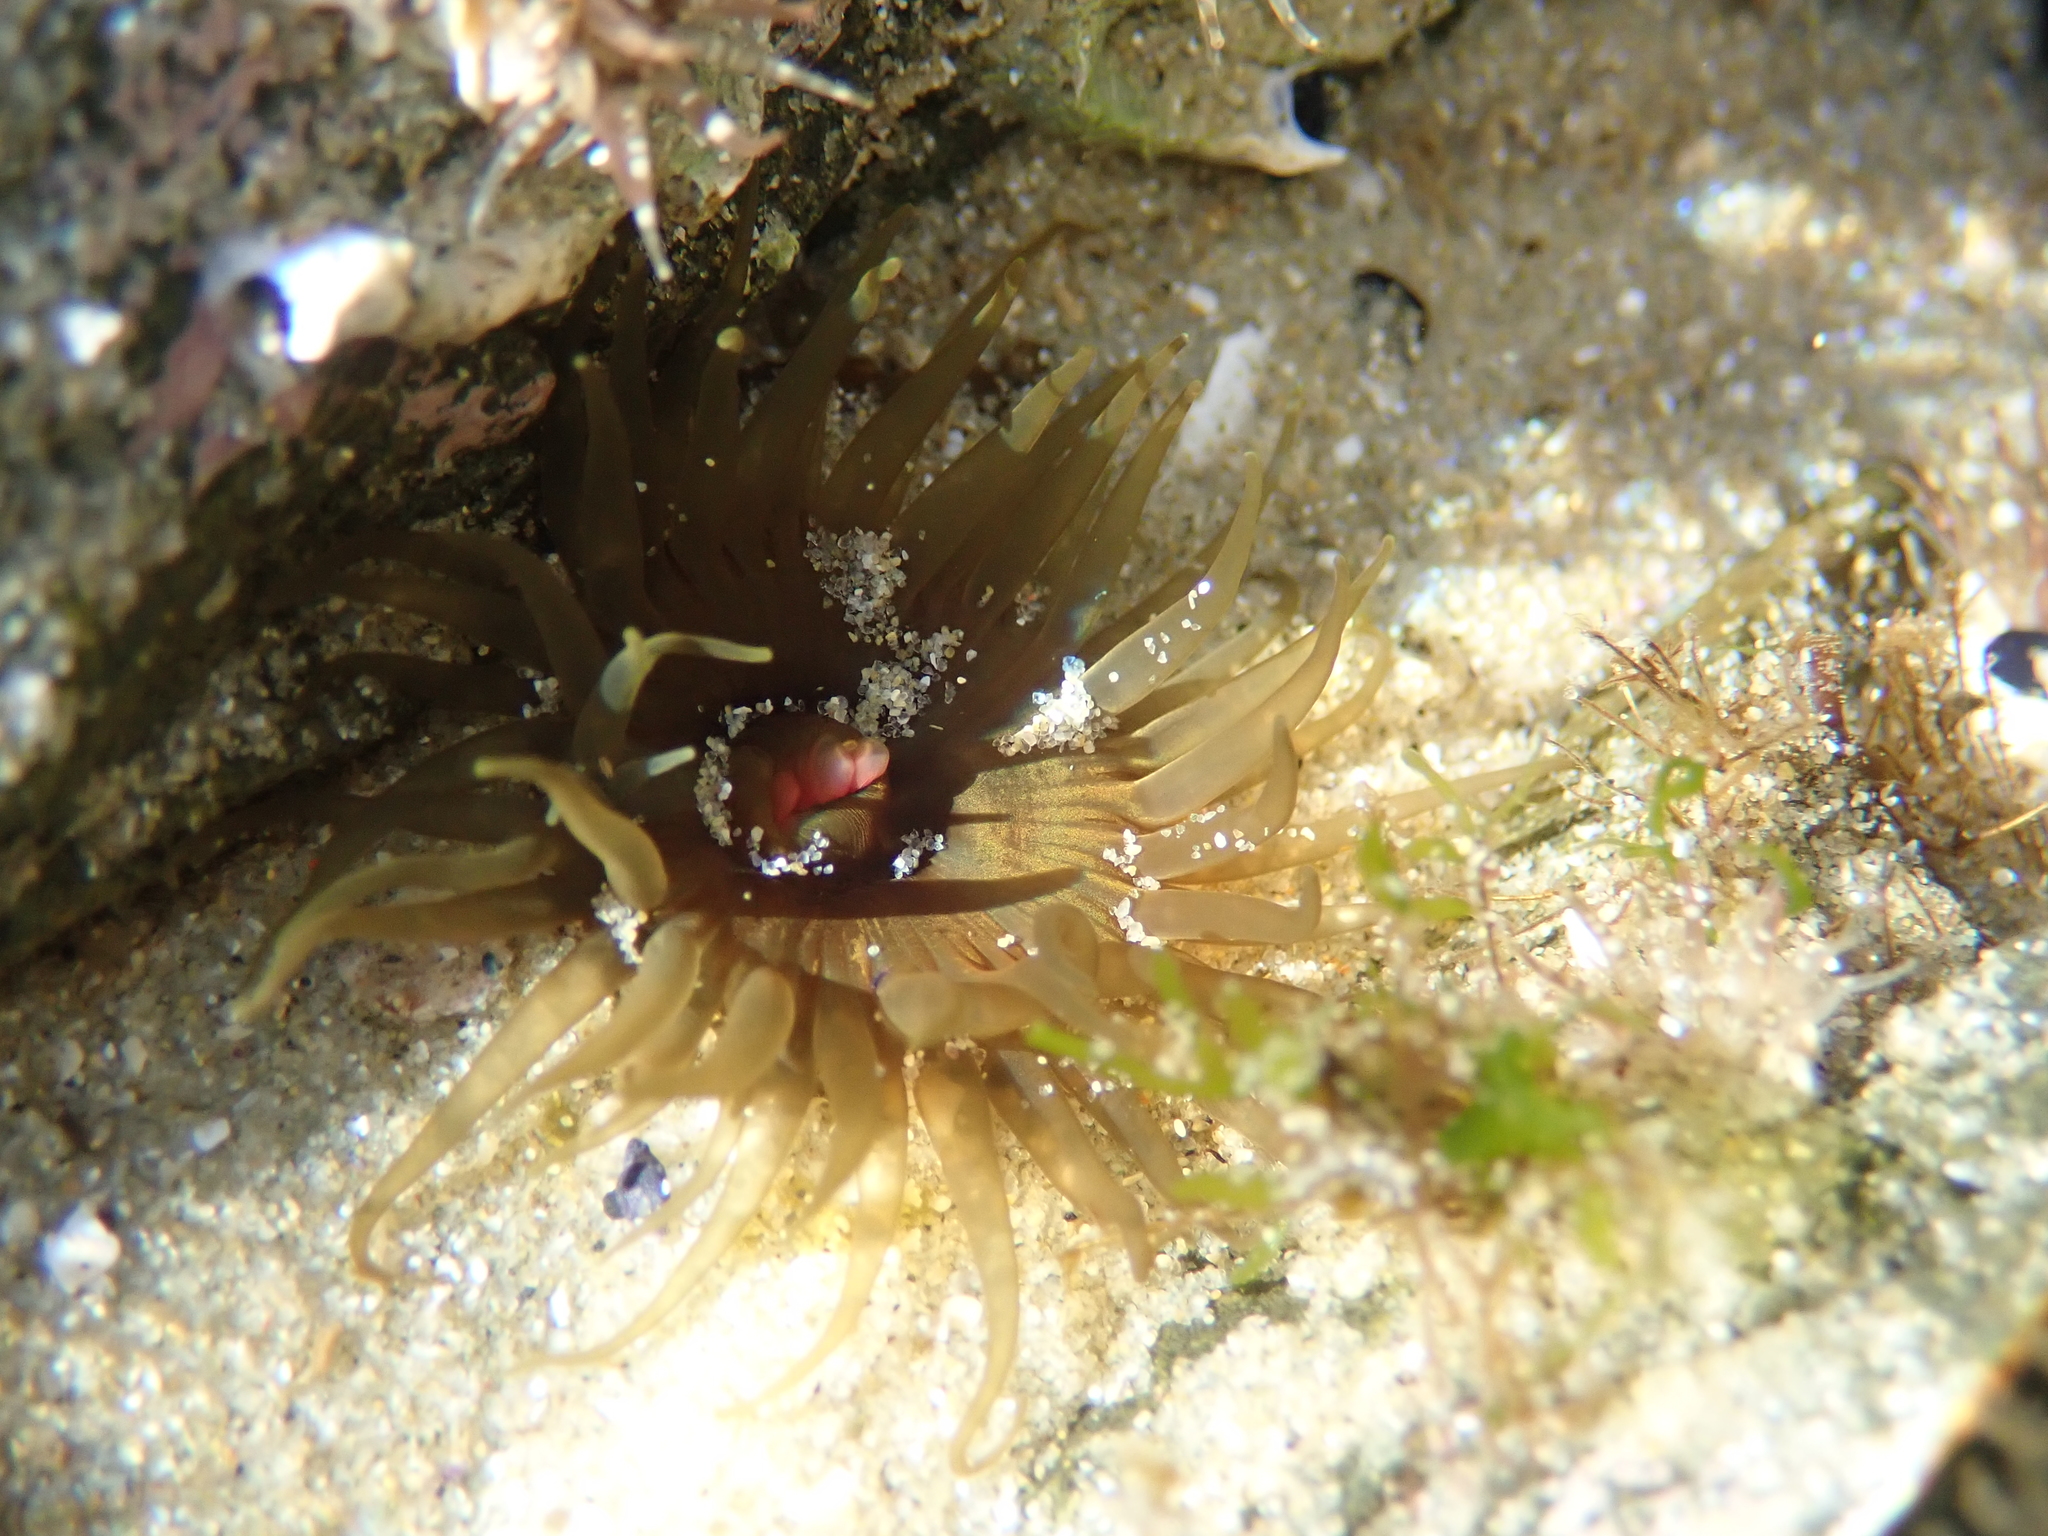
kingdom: Animalia
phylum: Cnidaria
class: Anthozoa
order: Actiniaria
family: Actiniidae
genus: Isactinia
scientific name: Isactinia olivacea
